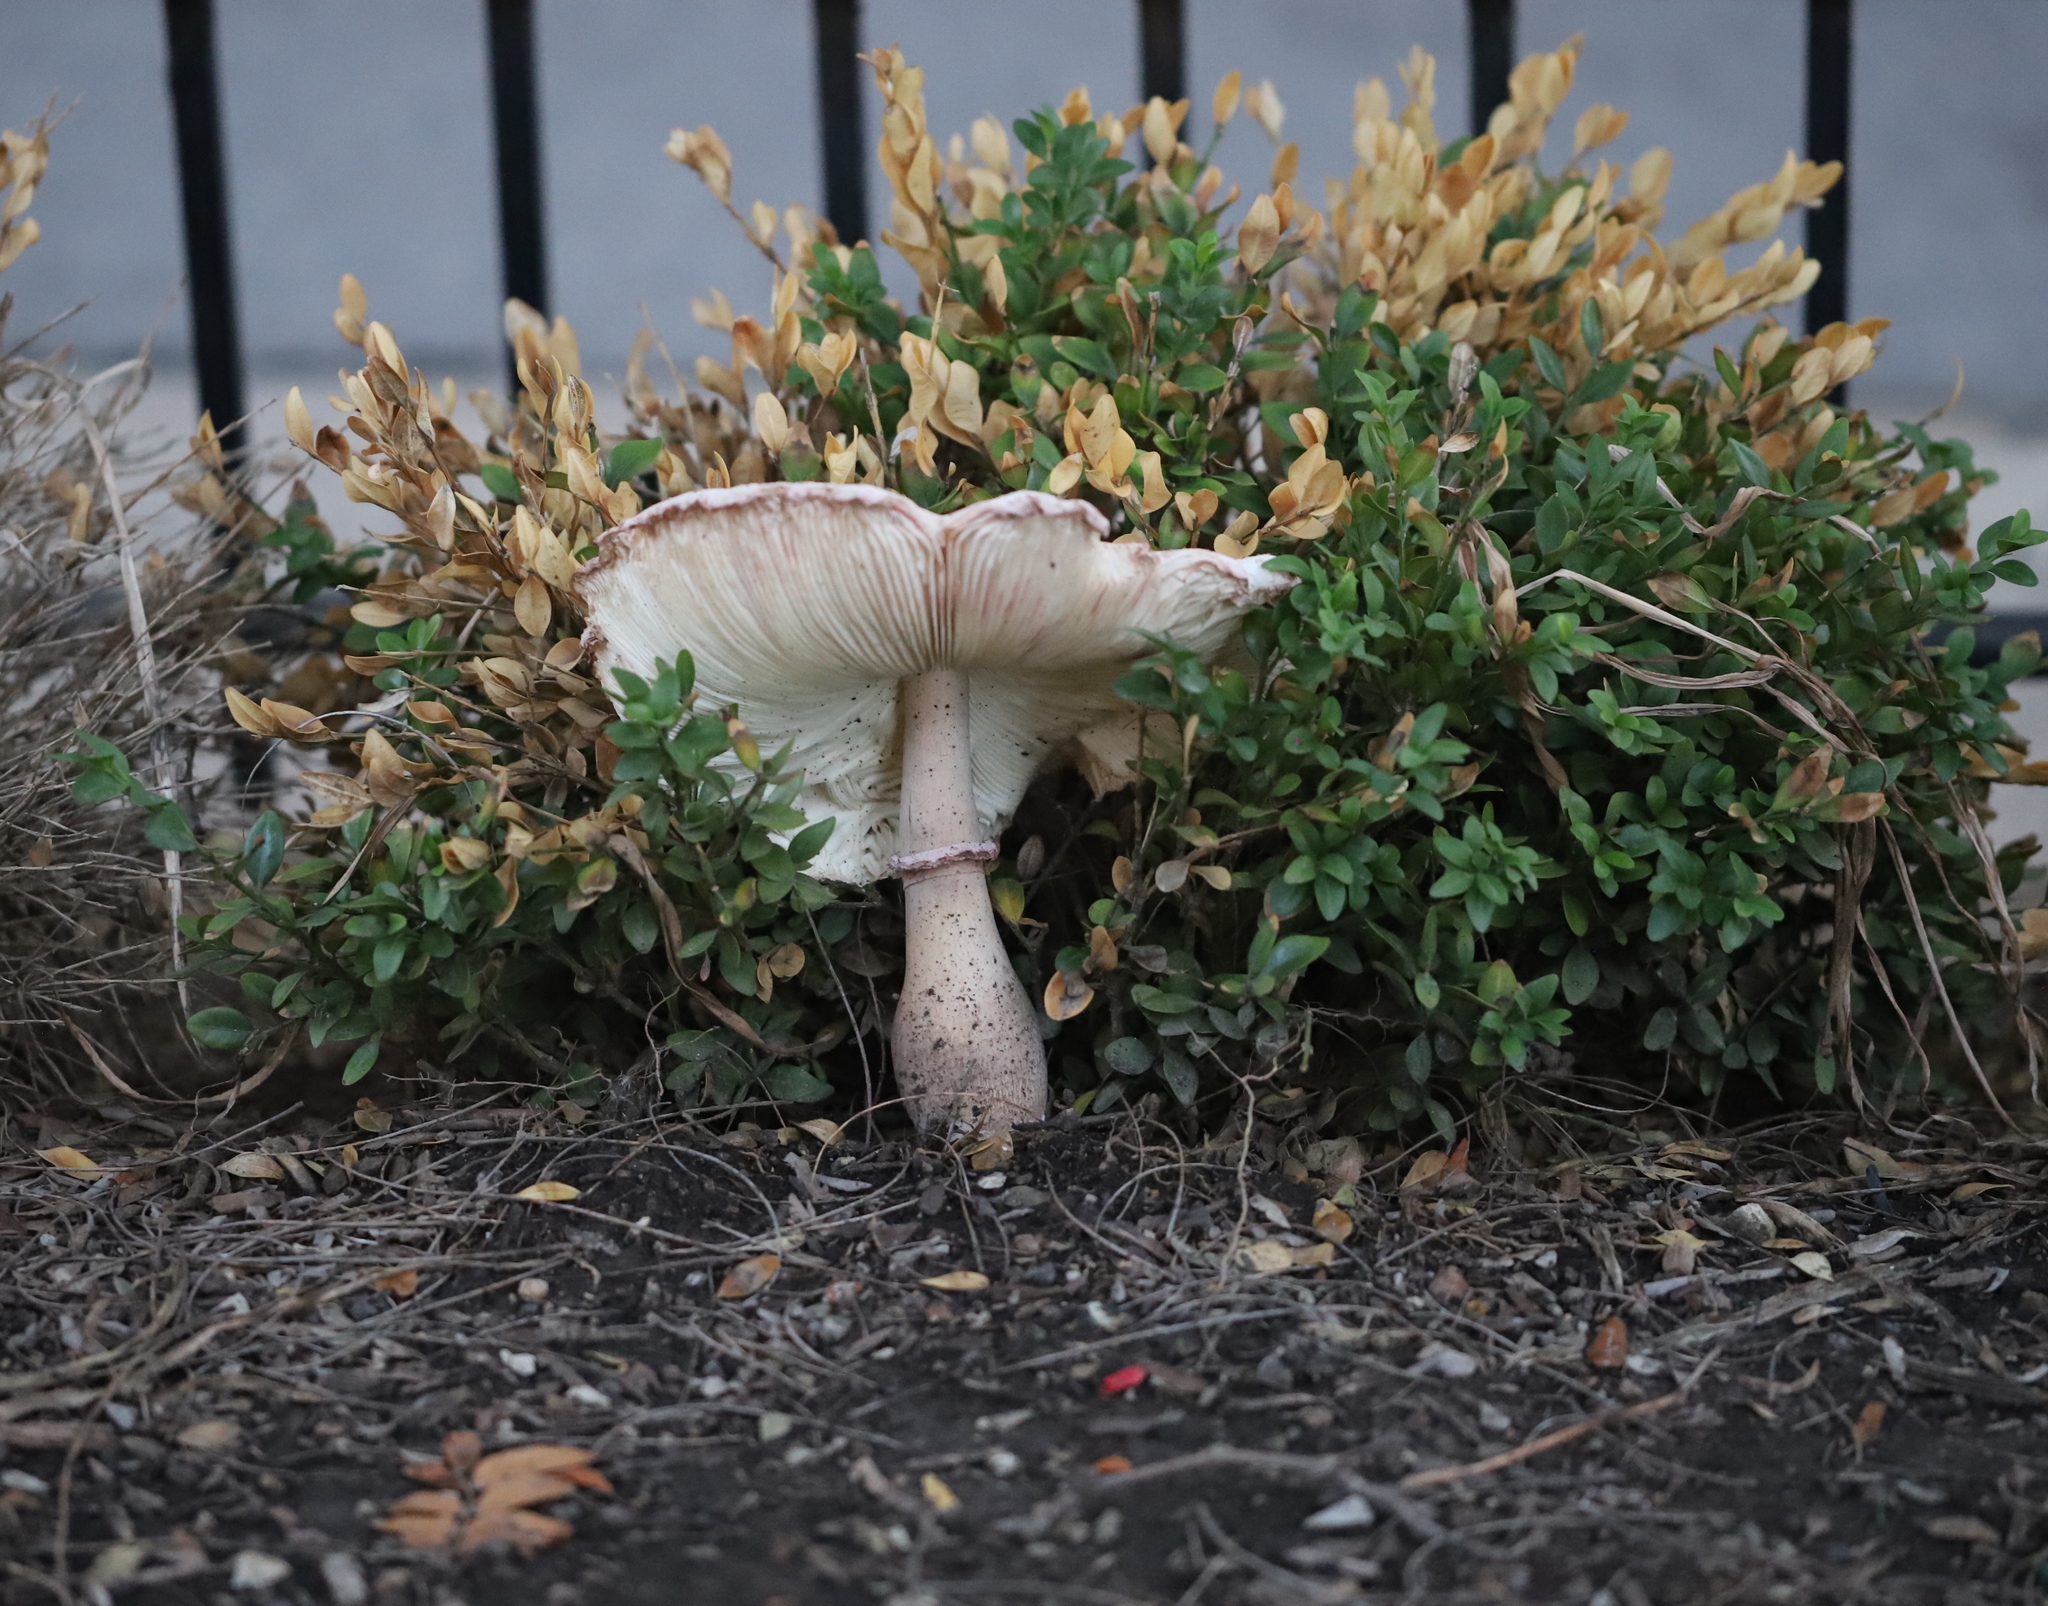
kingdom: Fungi
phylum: Basidiomycota
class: Agaricomycetes
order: Agaricales
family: Agaricaceae
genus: Leucoagaricus
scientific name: Leucoagaricus americanus
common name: Reddening lepiota
